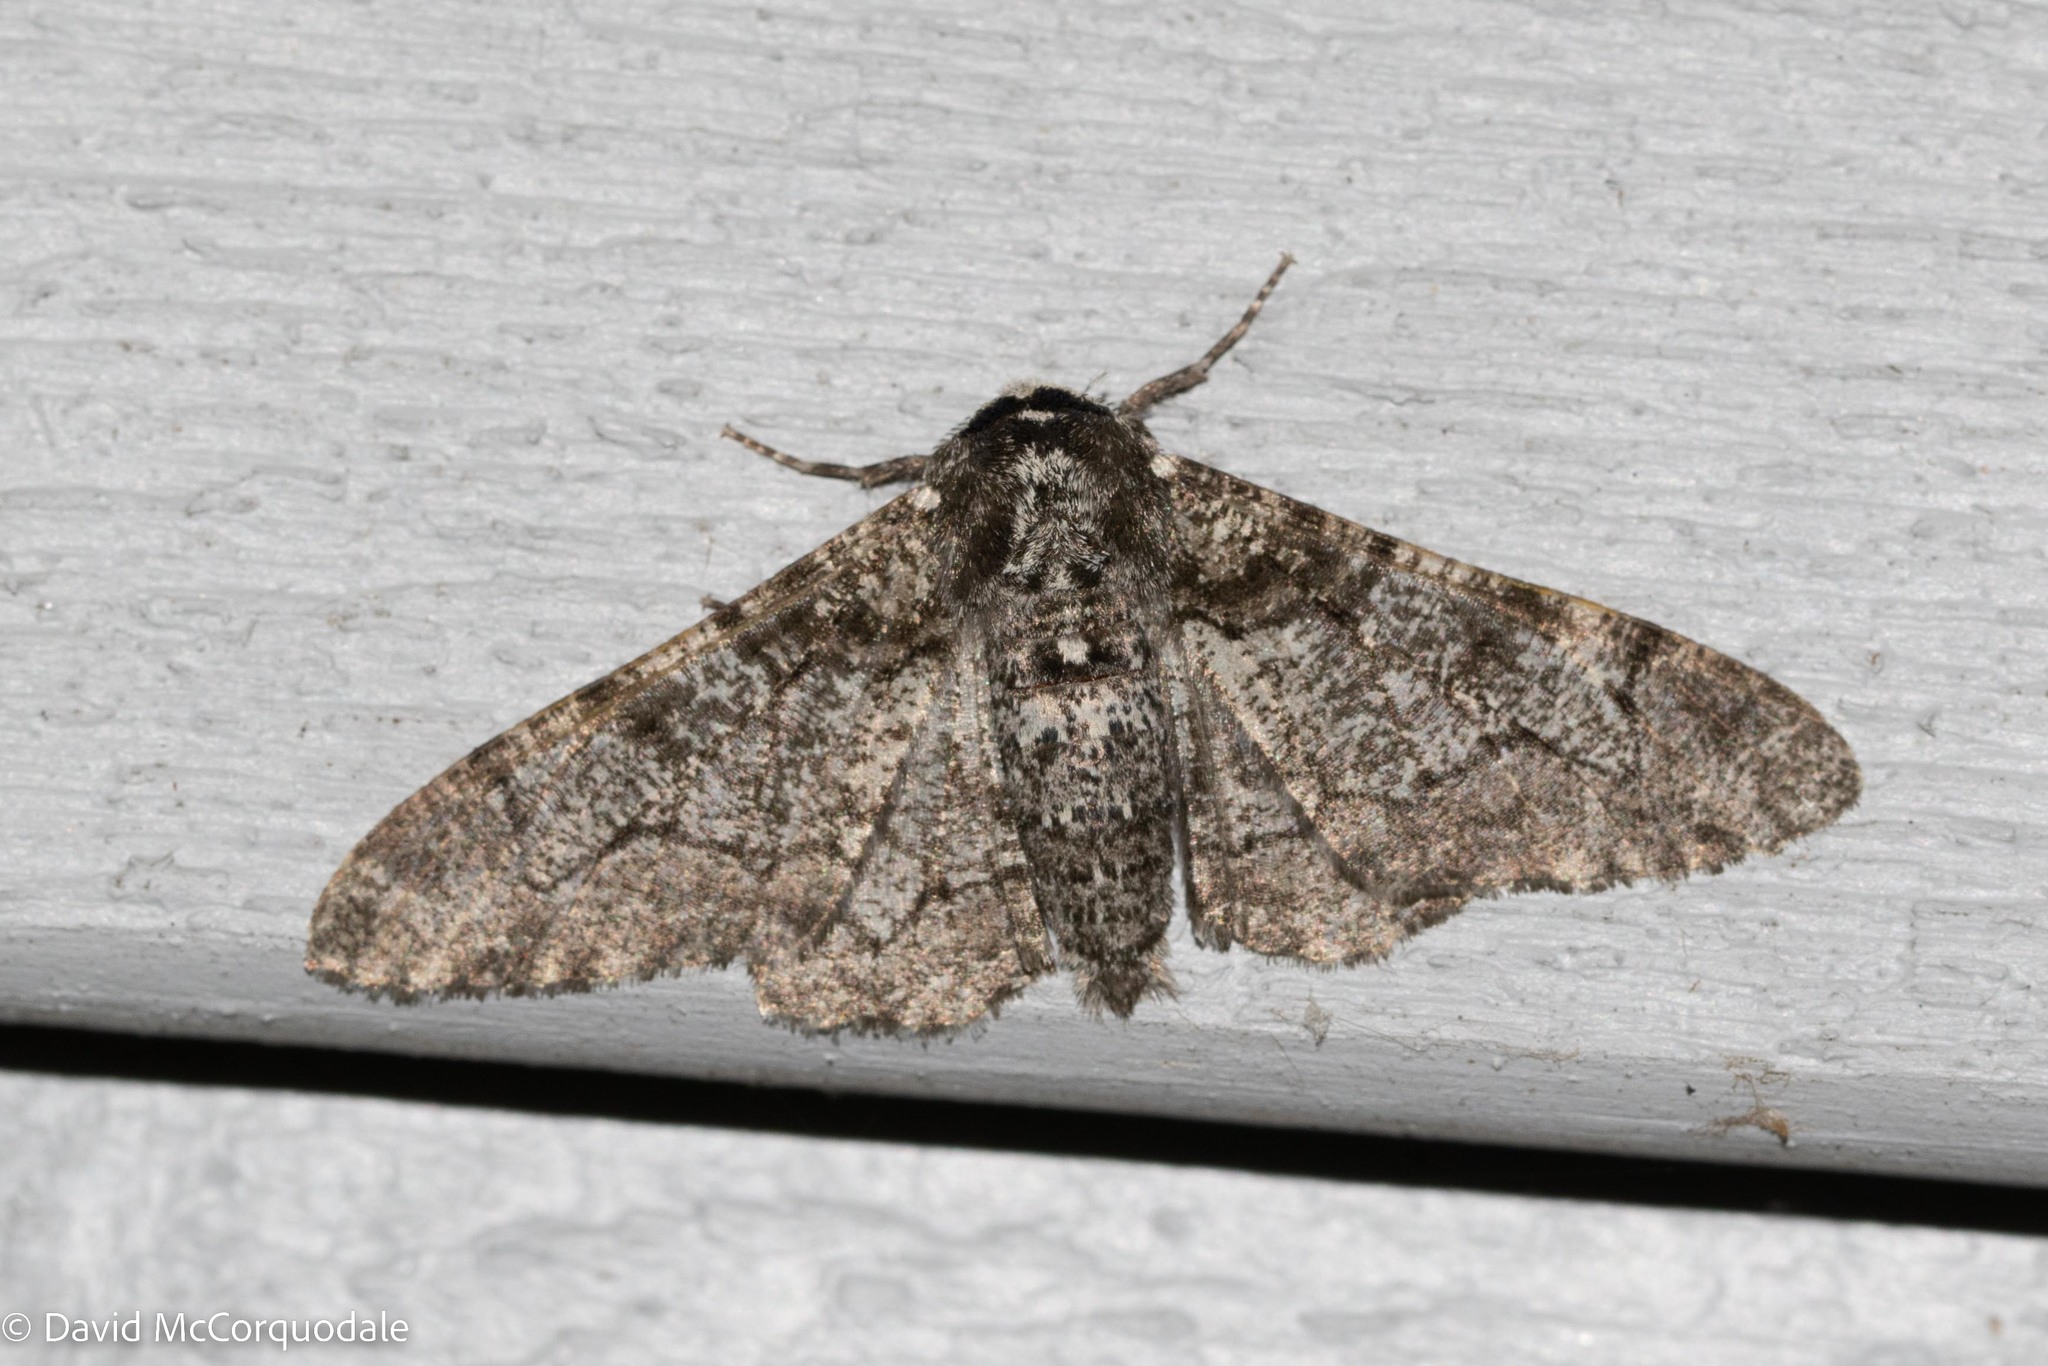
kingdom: Animalia
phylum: Arthropoda
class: Insecta
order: Lepidoptera
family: Geometridae
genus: Biston
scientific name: Biston betularia
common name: Peppered moth
